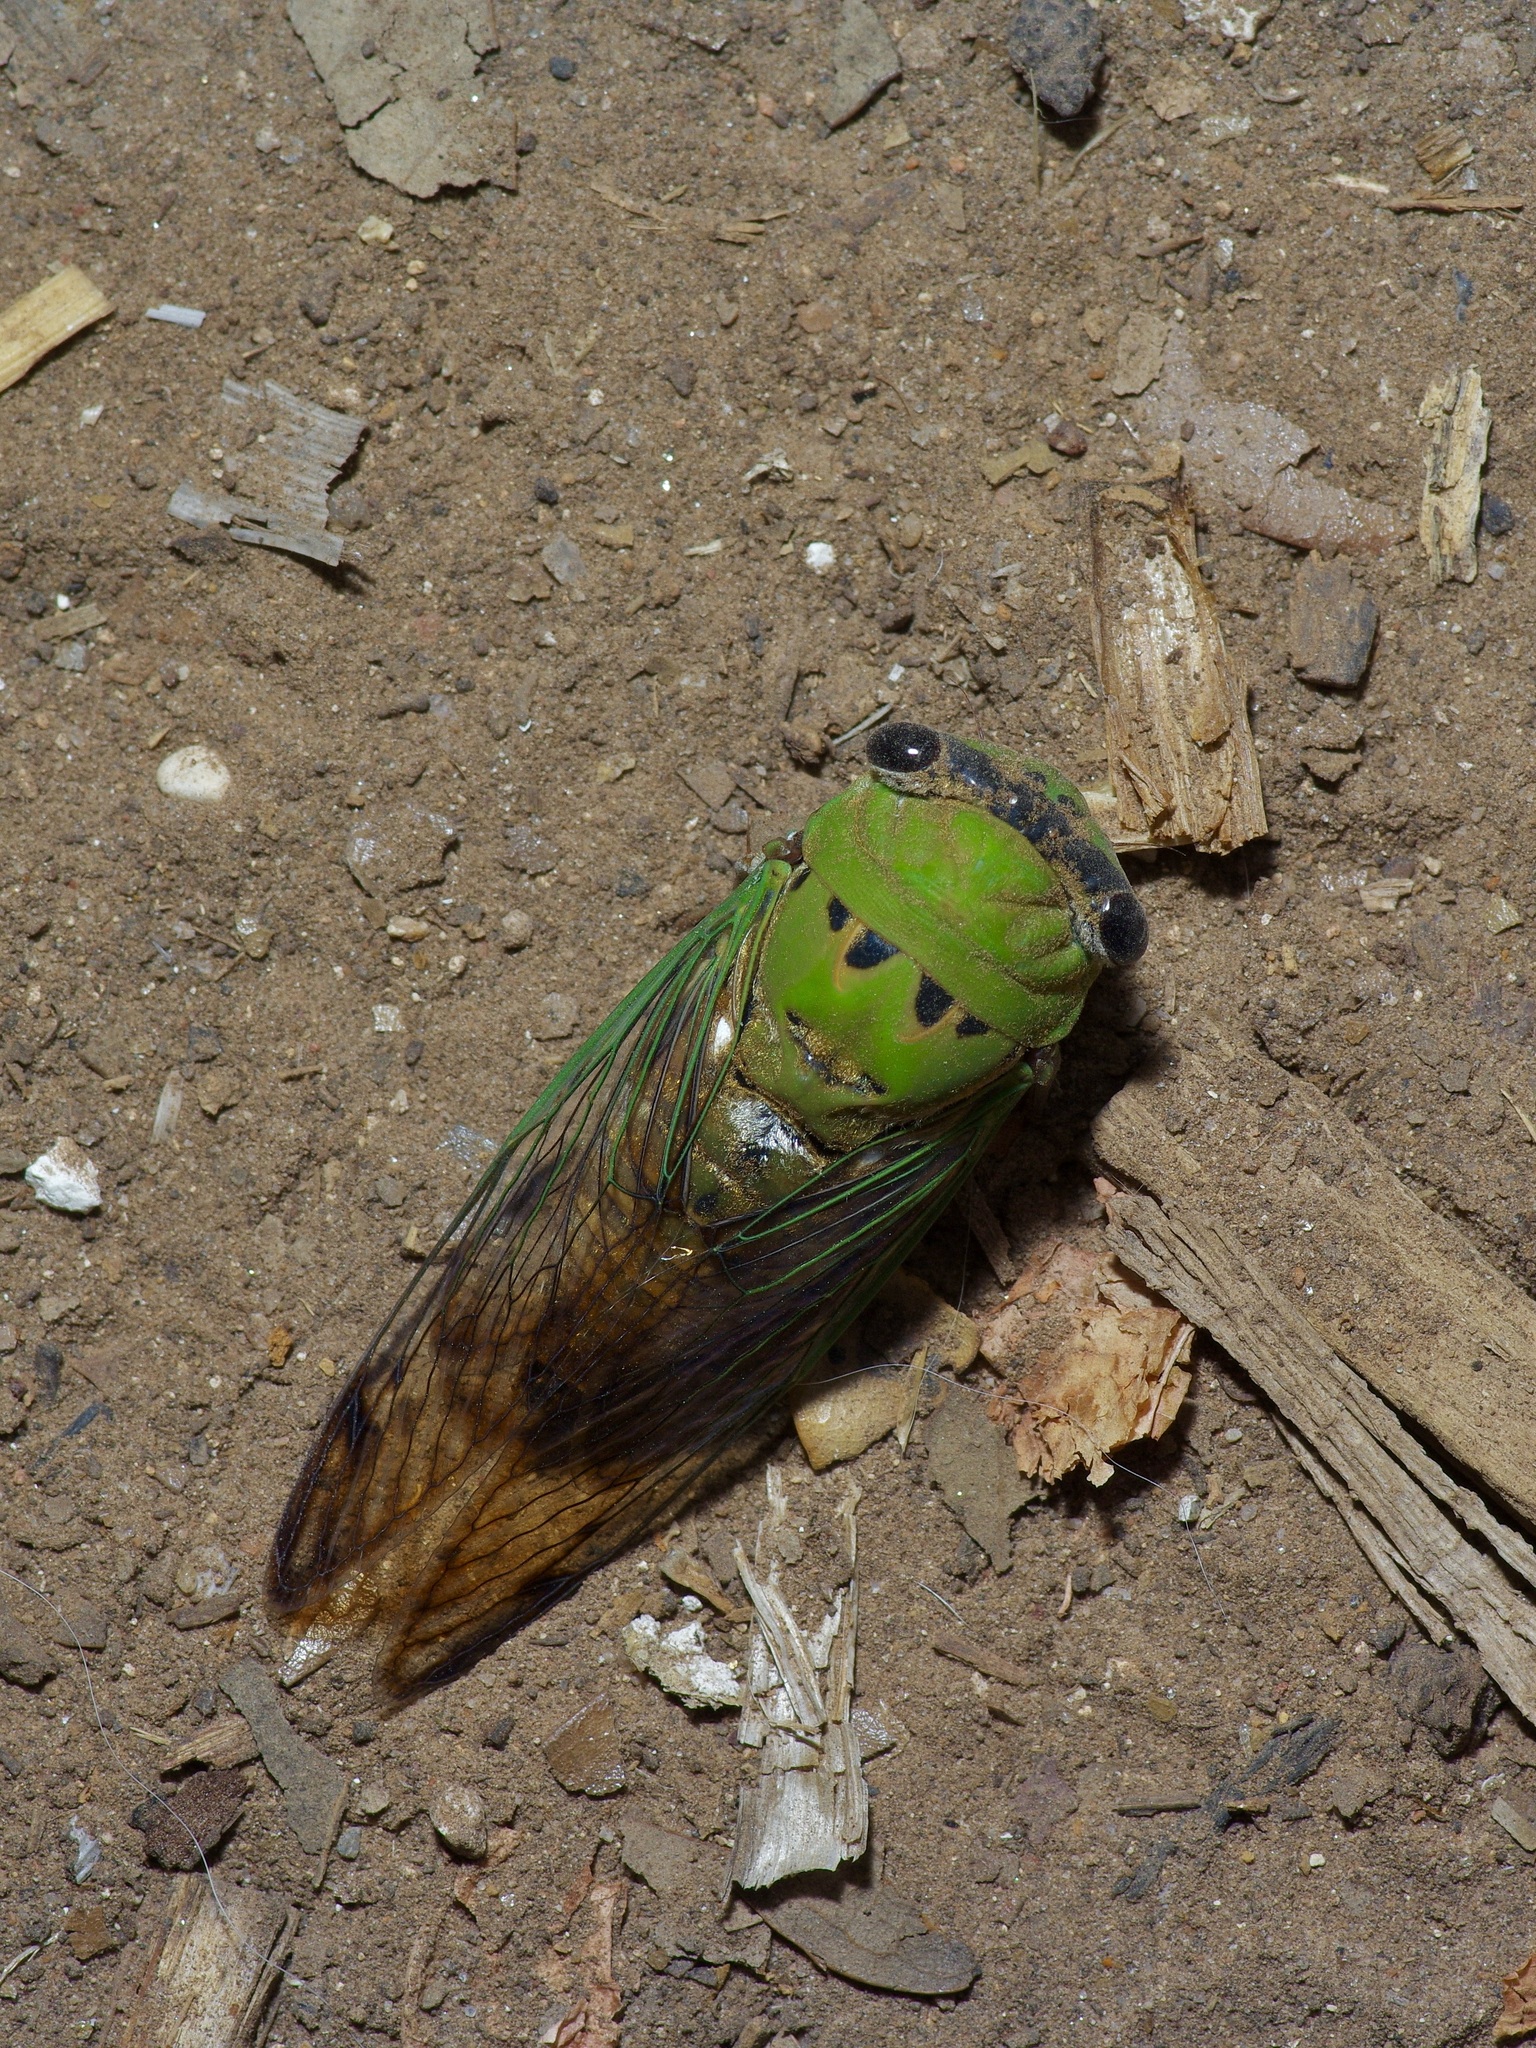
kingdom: Animalia
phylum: Arthropoda
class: Insecta
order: Hemiptera
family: Cicadidae
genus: Neotibicen
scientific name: Neotibicen superbus
